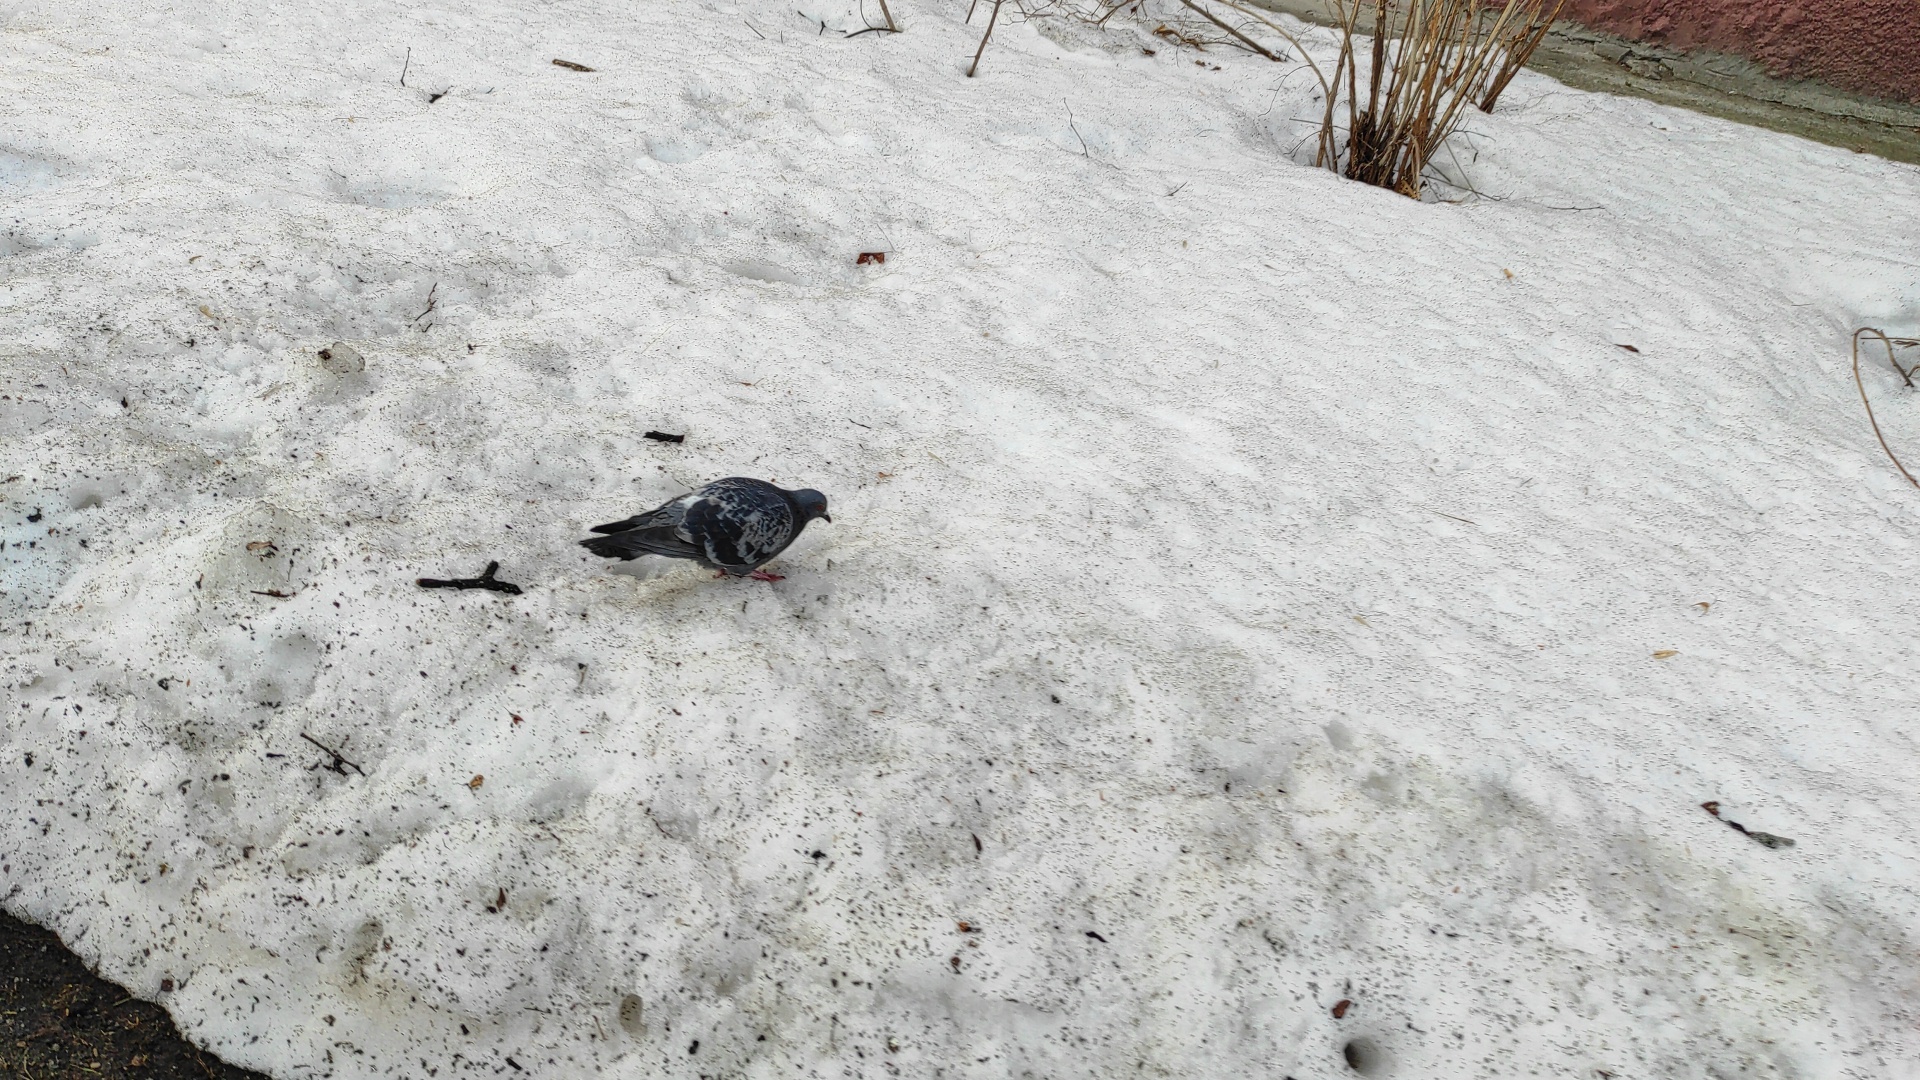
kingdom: Animalia
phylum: Chordata
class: Aves
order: Columbiformes
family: Columbidae
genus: Columba
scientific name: Columba livia
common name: Rock pigeon
